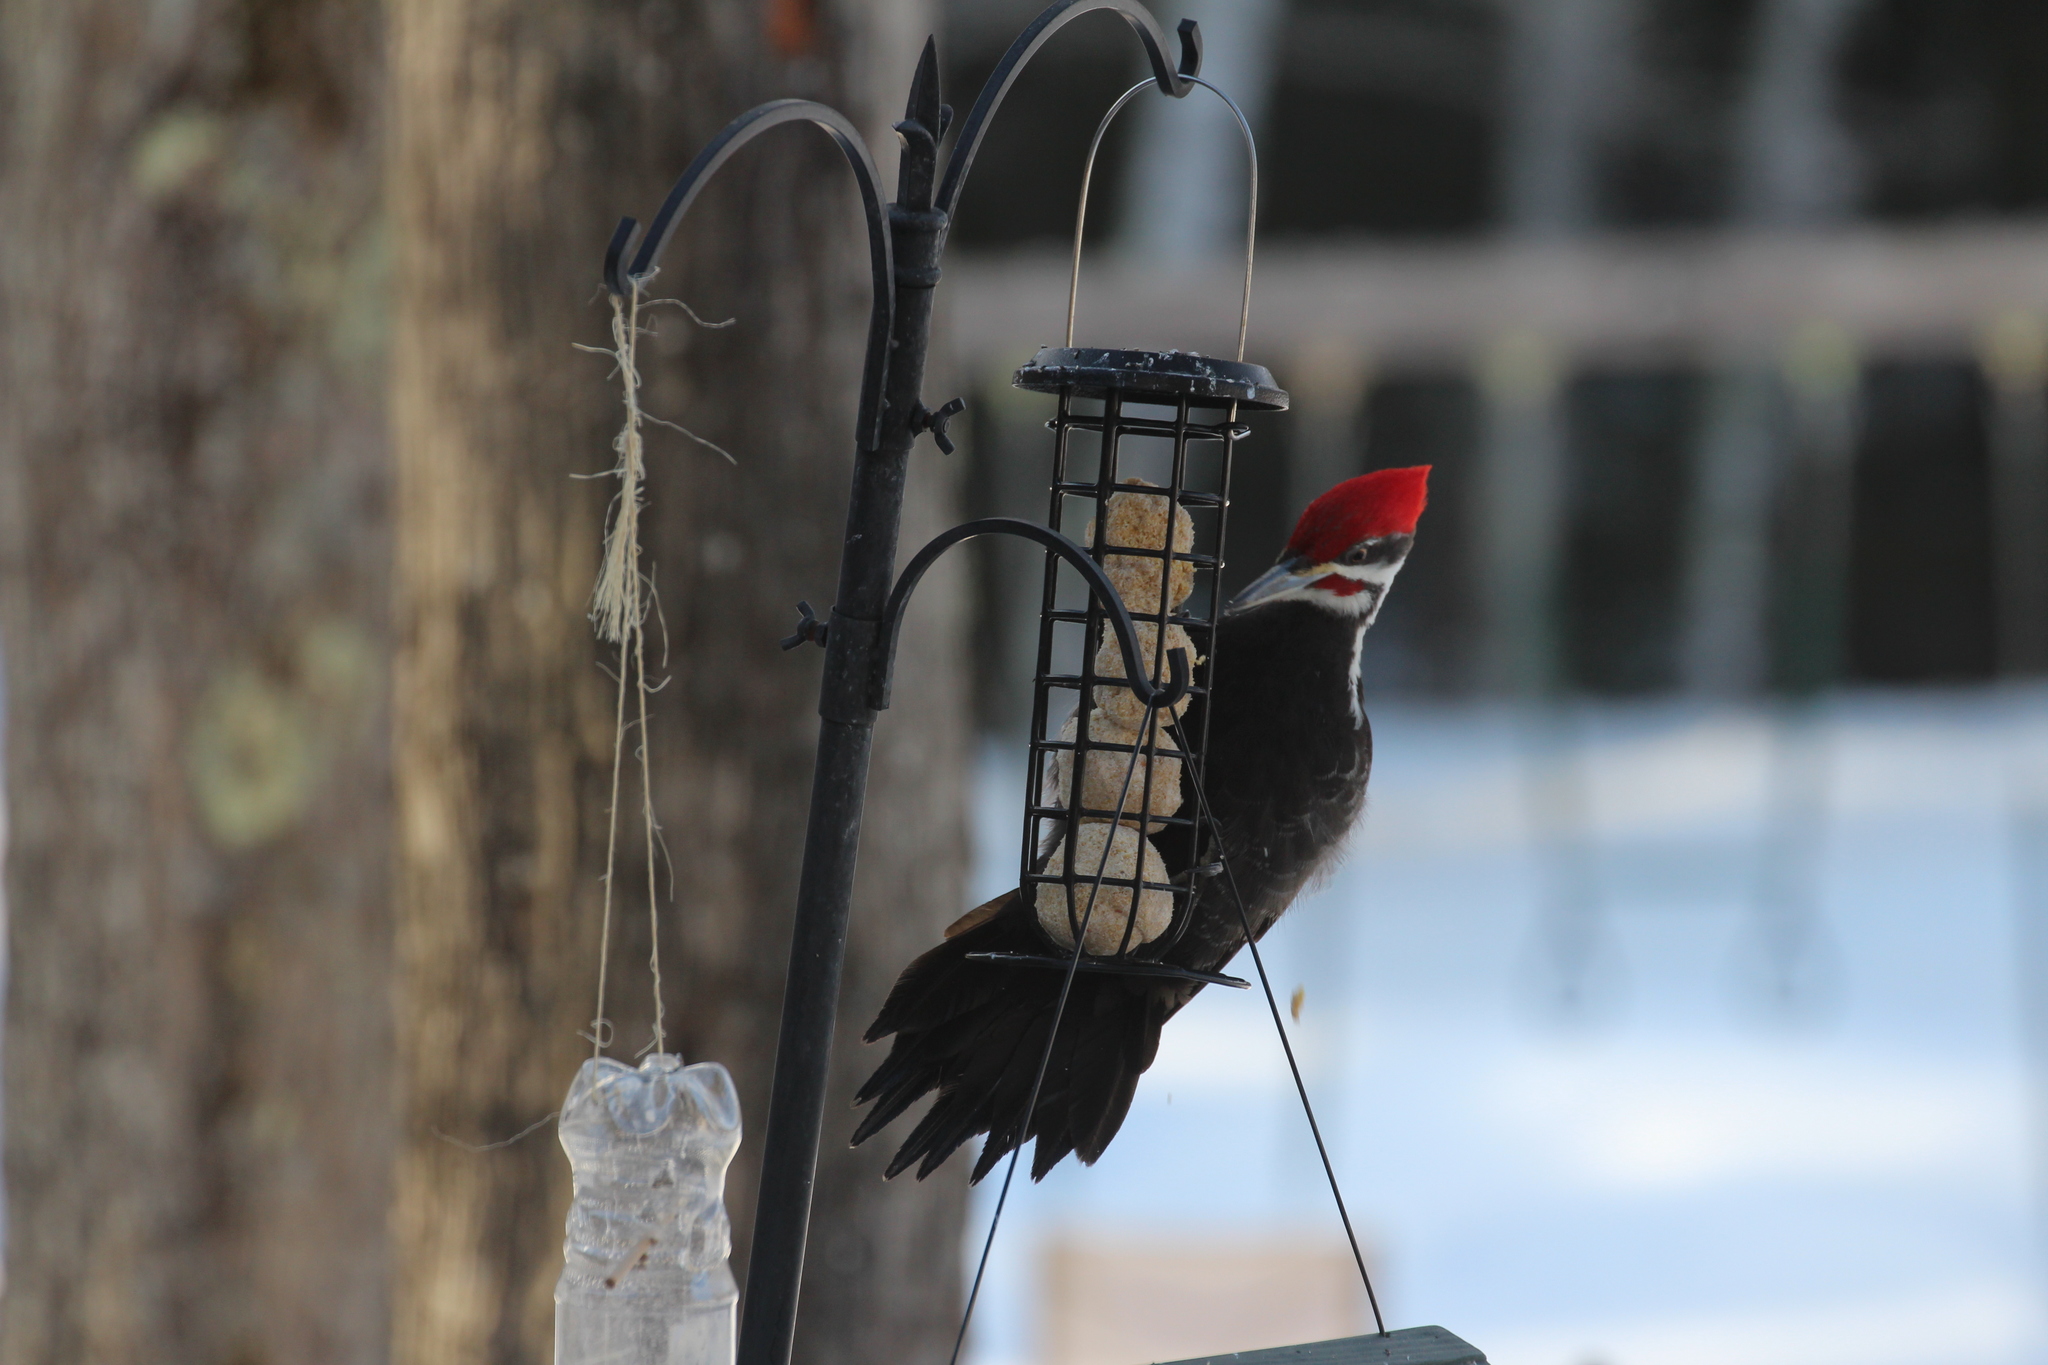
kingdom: Animalia
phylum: Chordata
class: Aves
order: Piciformes
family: Picidae
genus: Dryocopus
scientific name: Dryocopus pileatus
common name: Pileated woodpecker
